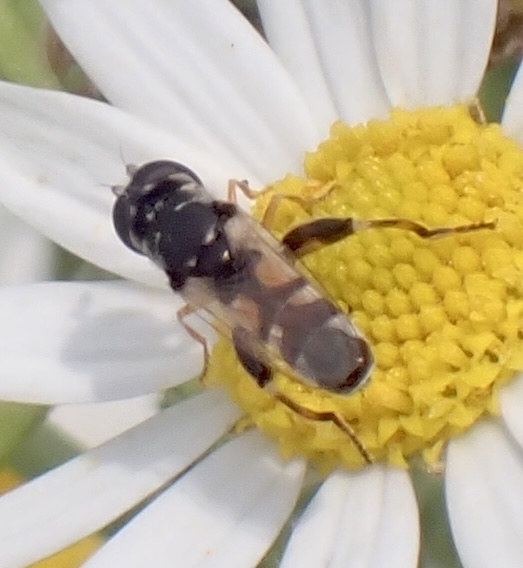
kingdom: Animalia
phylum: Arthropoda
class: Insecta
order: Diptera
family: Syrphidae
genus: Syritta
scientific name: Syritta flaviventris
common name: Syrphid fly
